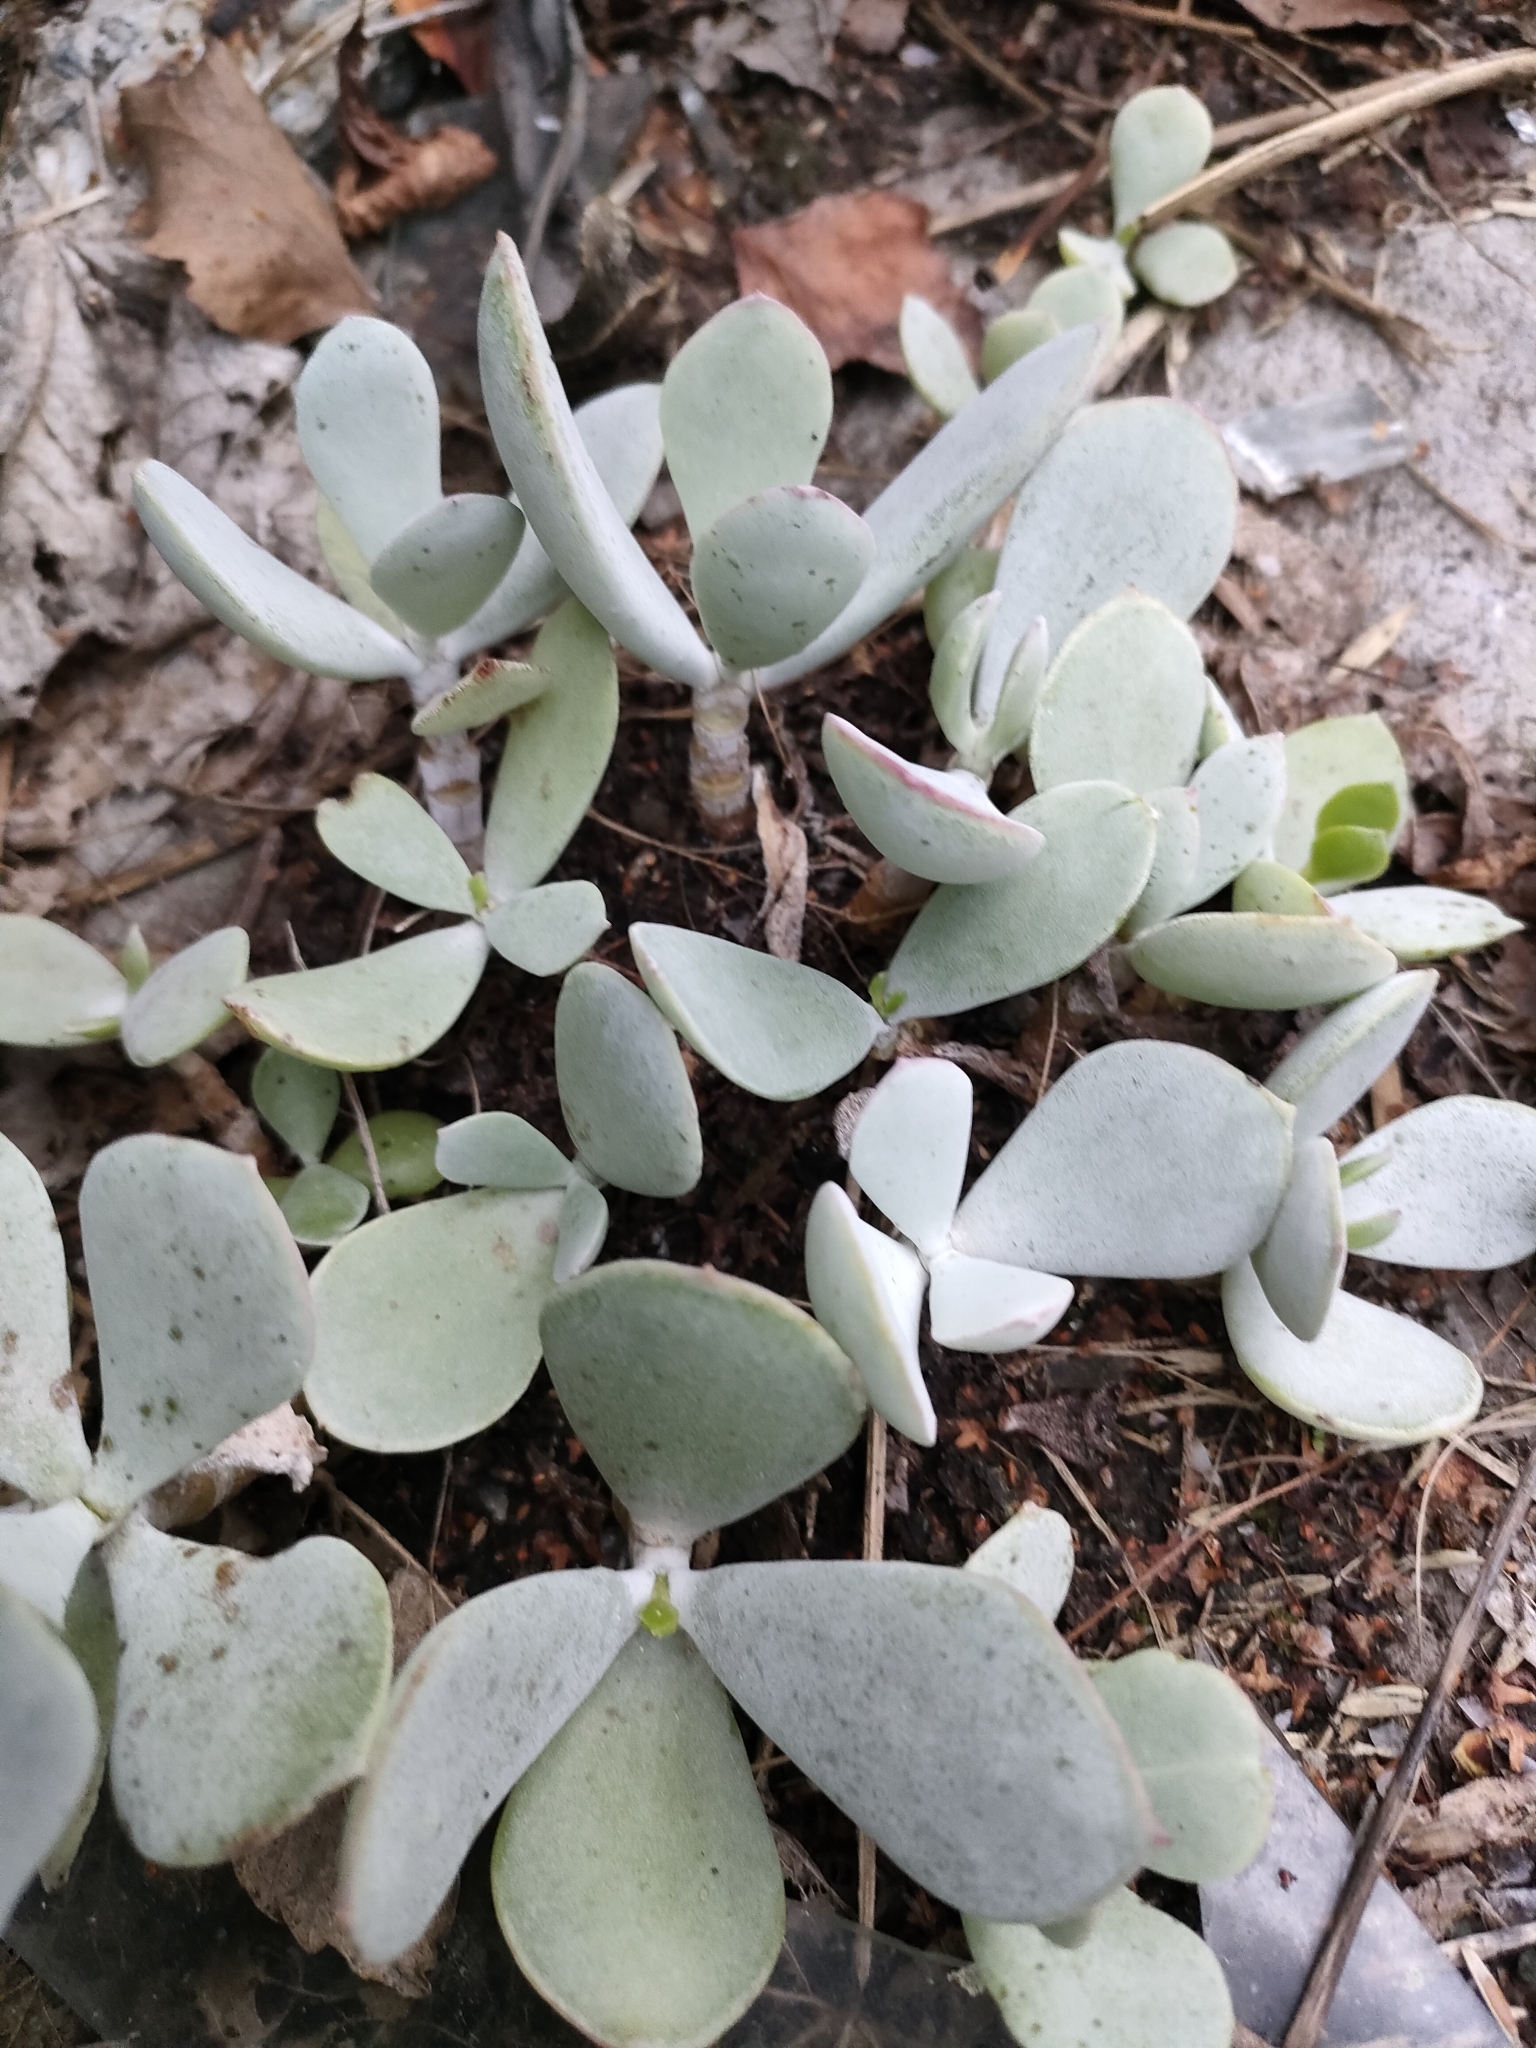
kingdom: Plantae
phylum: Tracheophyta
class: Magnoliopsida
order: Saxifragales
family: Crassulaceae
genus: Cotyledon
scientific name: Cotyledon orbiculata
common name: Pig's ear
